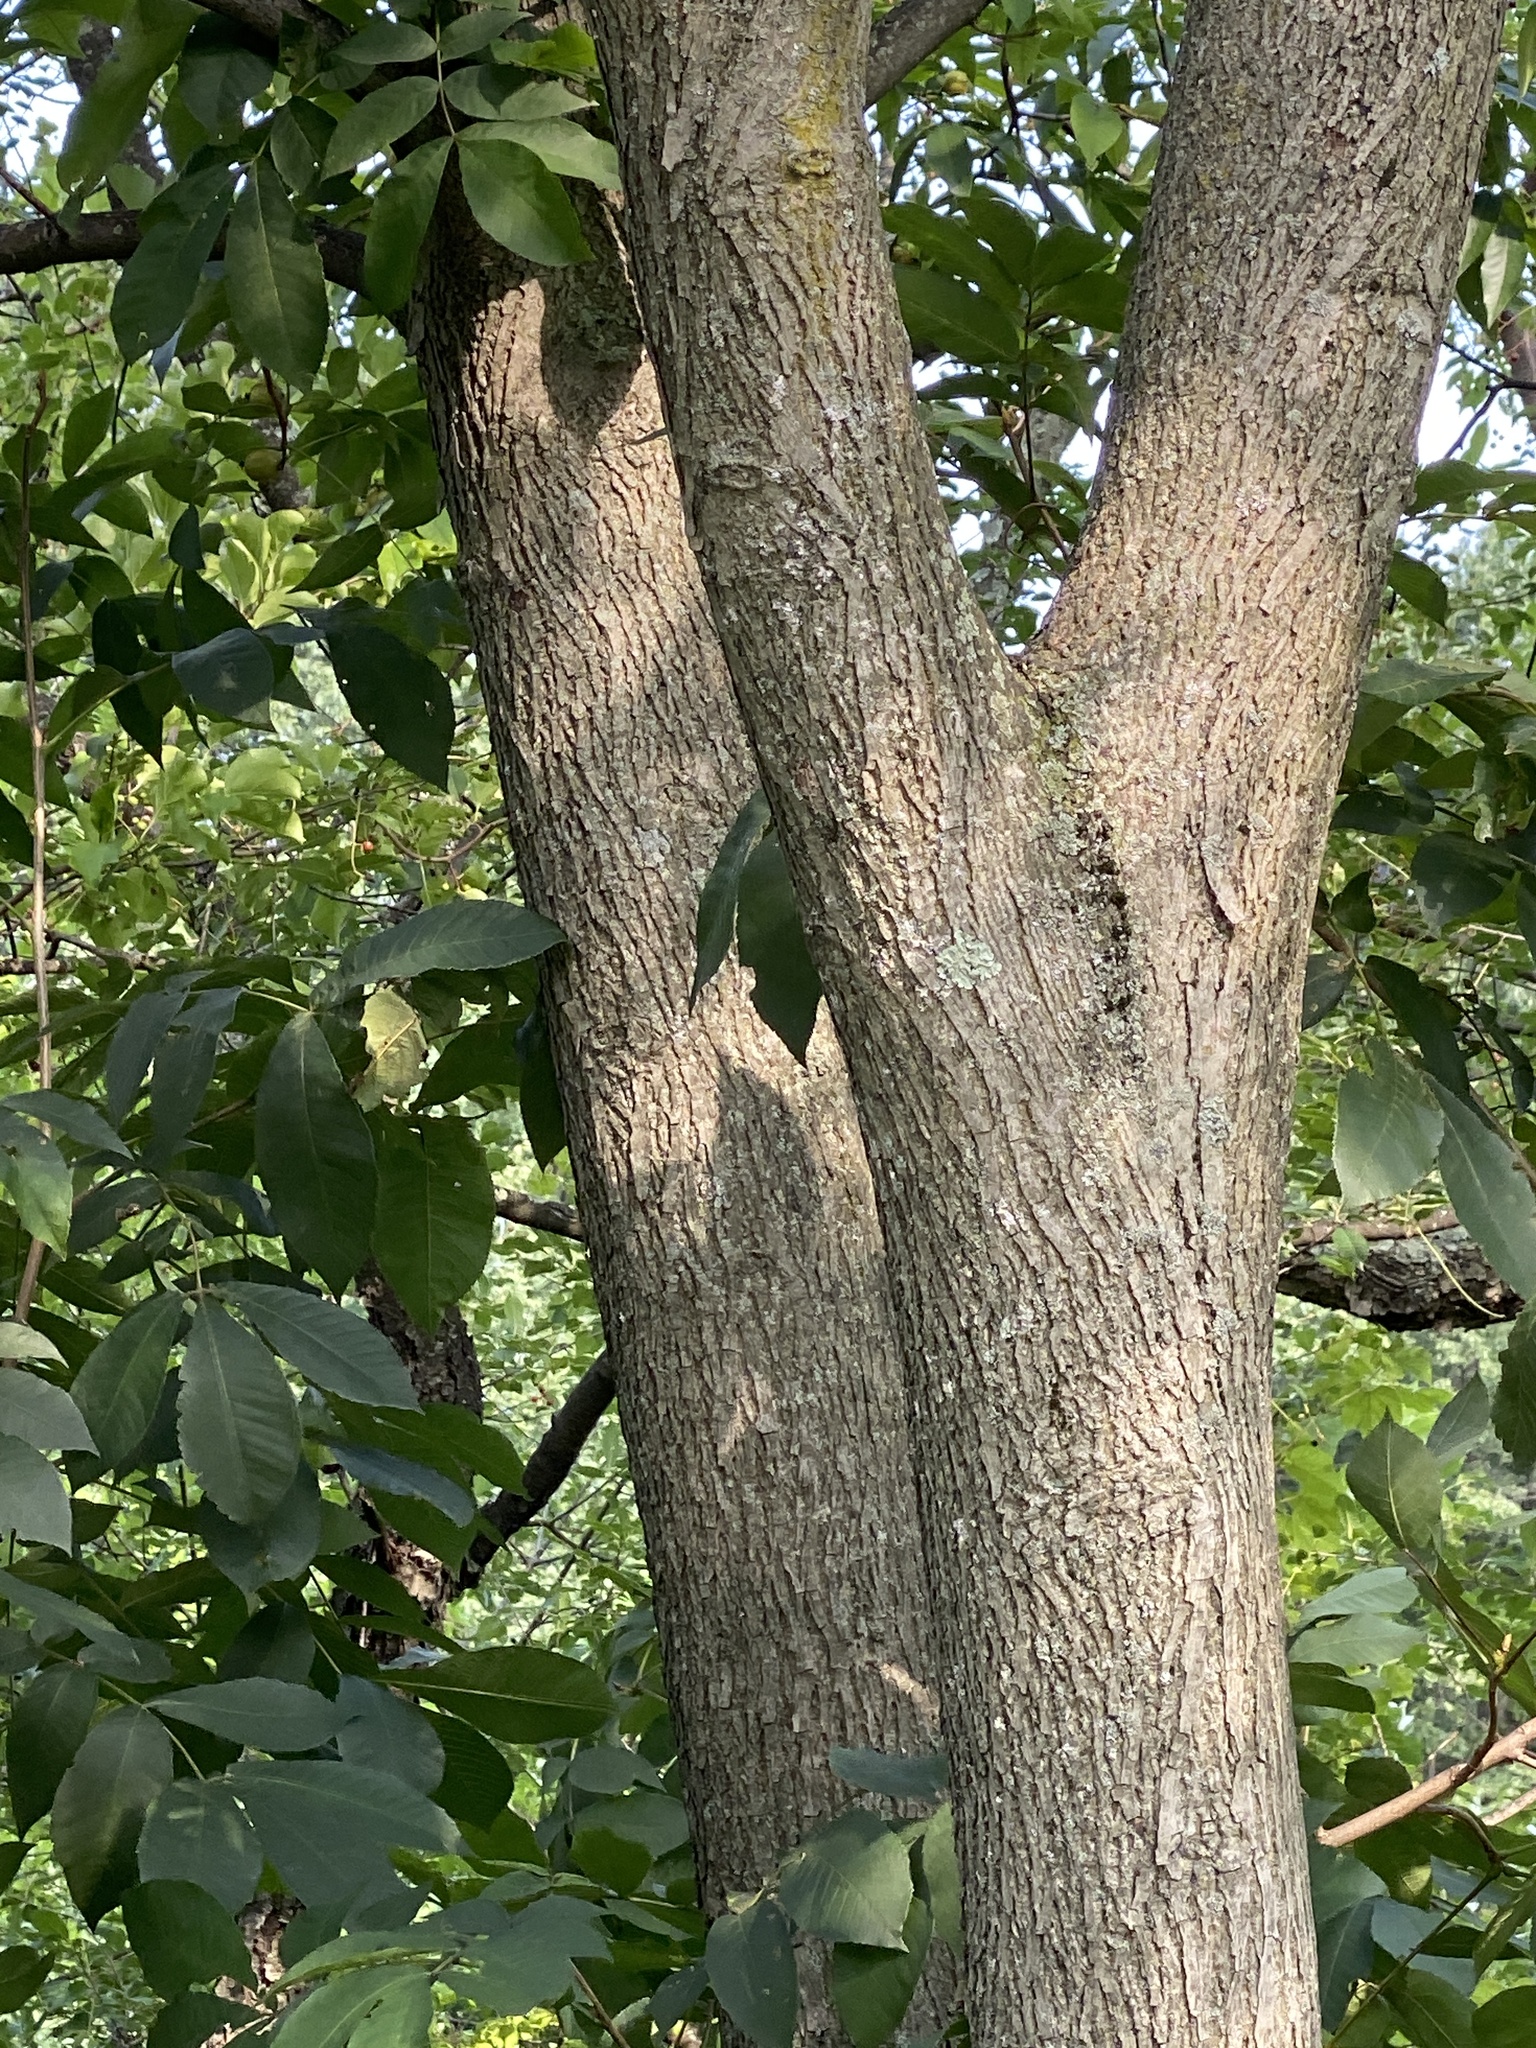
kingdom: Plantae
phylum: Tracheophyta
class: Magnoliopsida
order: Fagales
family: Juglandaceae
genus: Carya
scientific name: Carya cordiformis
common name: Bitternut hickory
